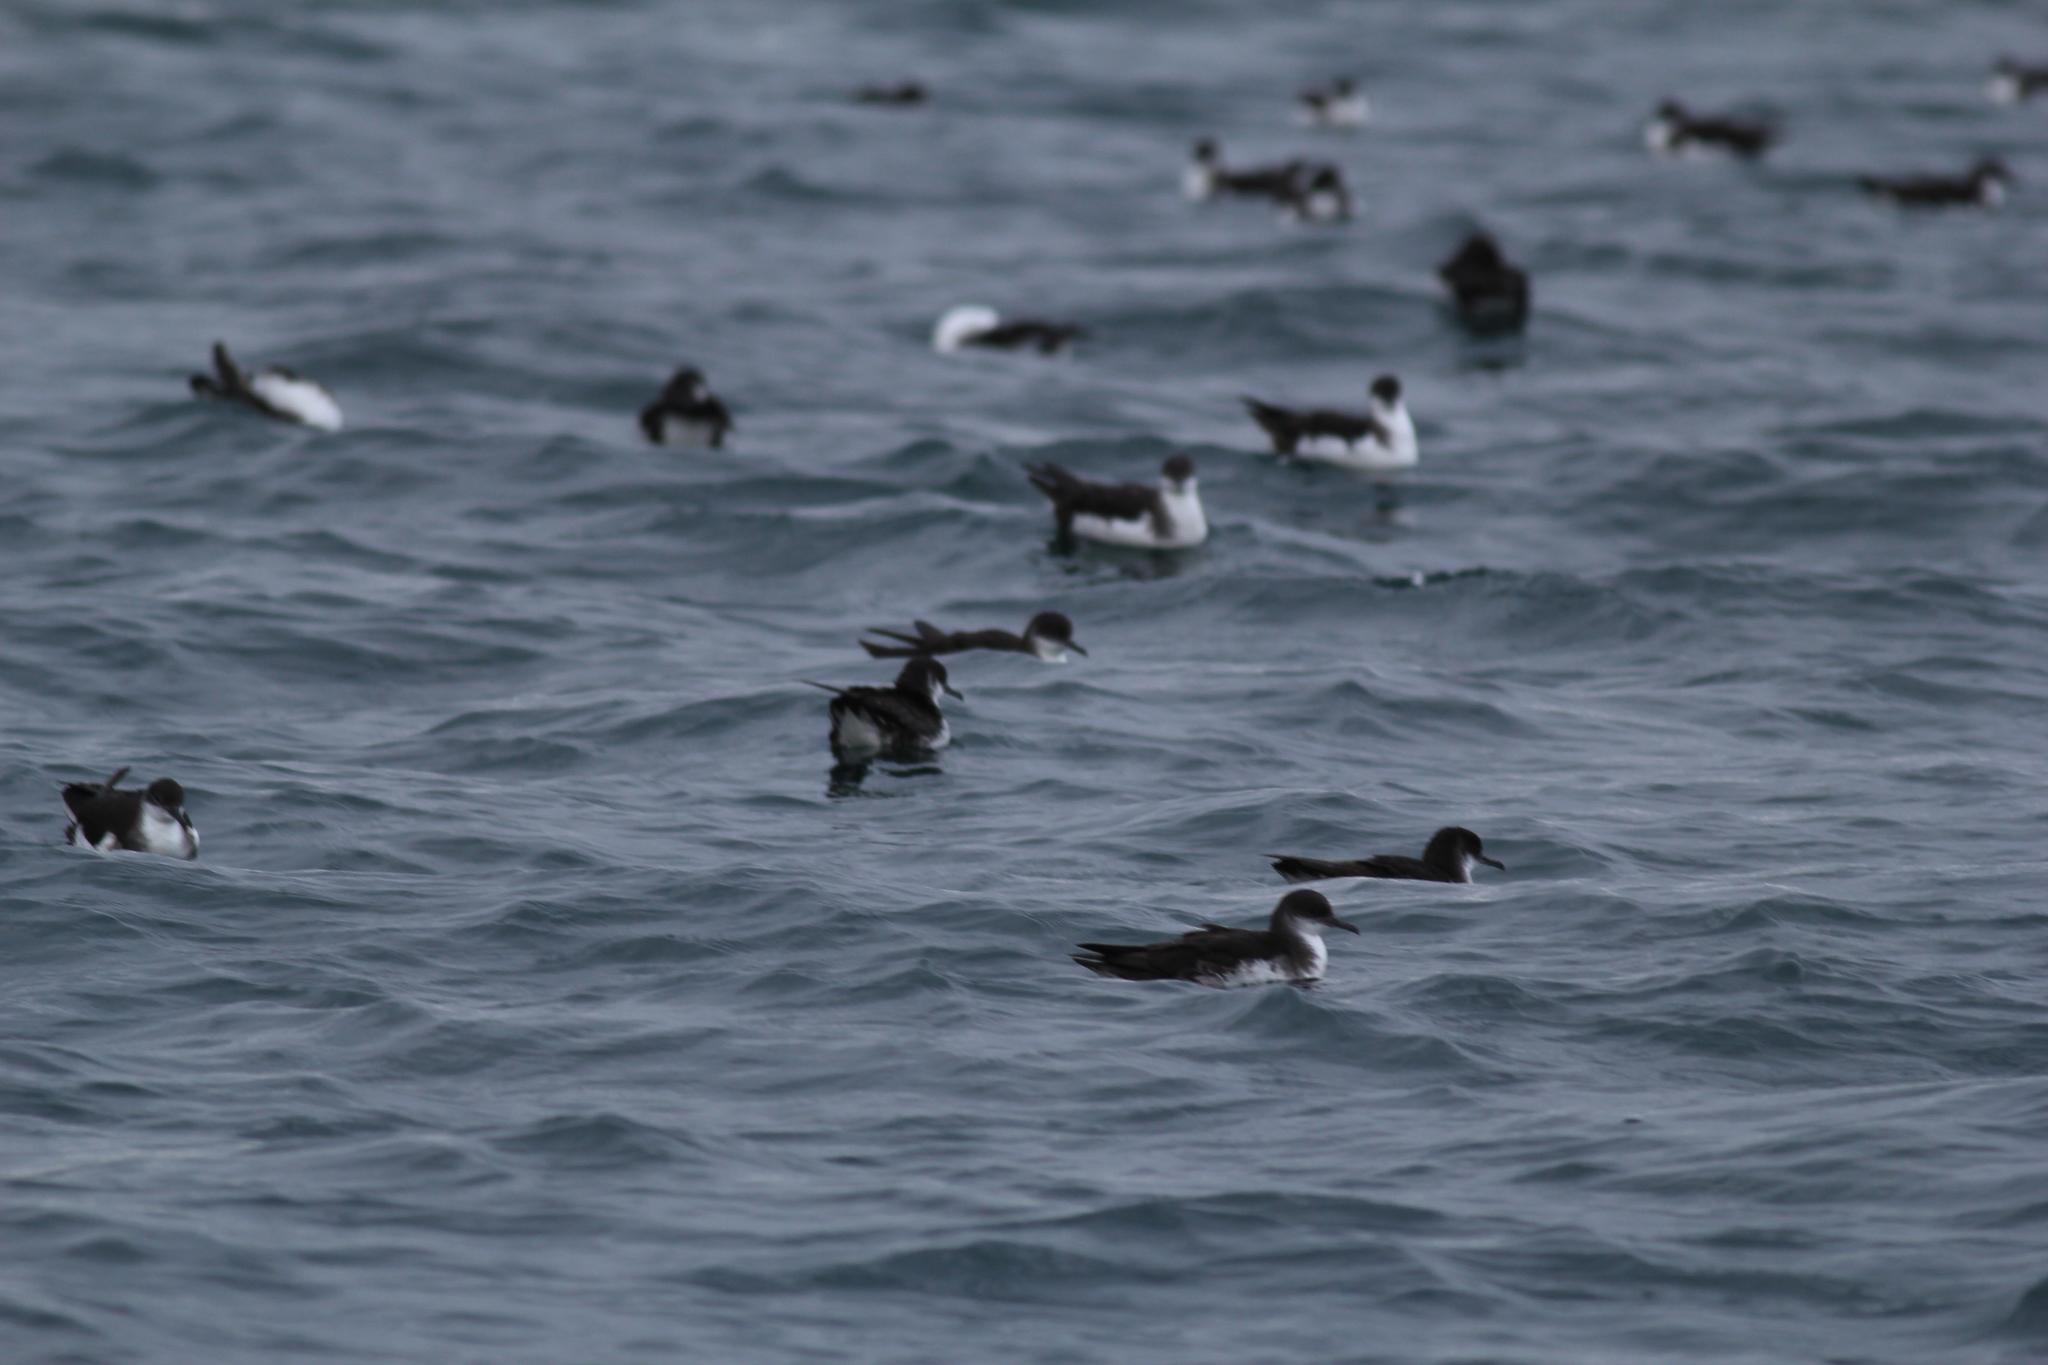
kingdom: Animalia
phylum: Chordata
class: Aves
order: Procellariiformes
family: Procellariidae
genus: Puffinus
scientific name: Puffinus puffinus
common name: Manx shearwater
